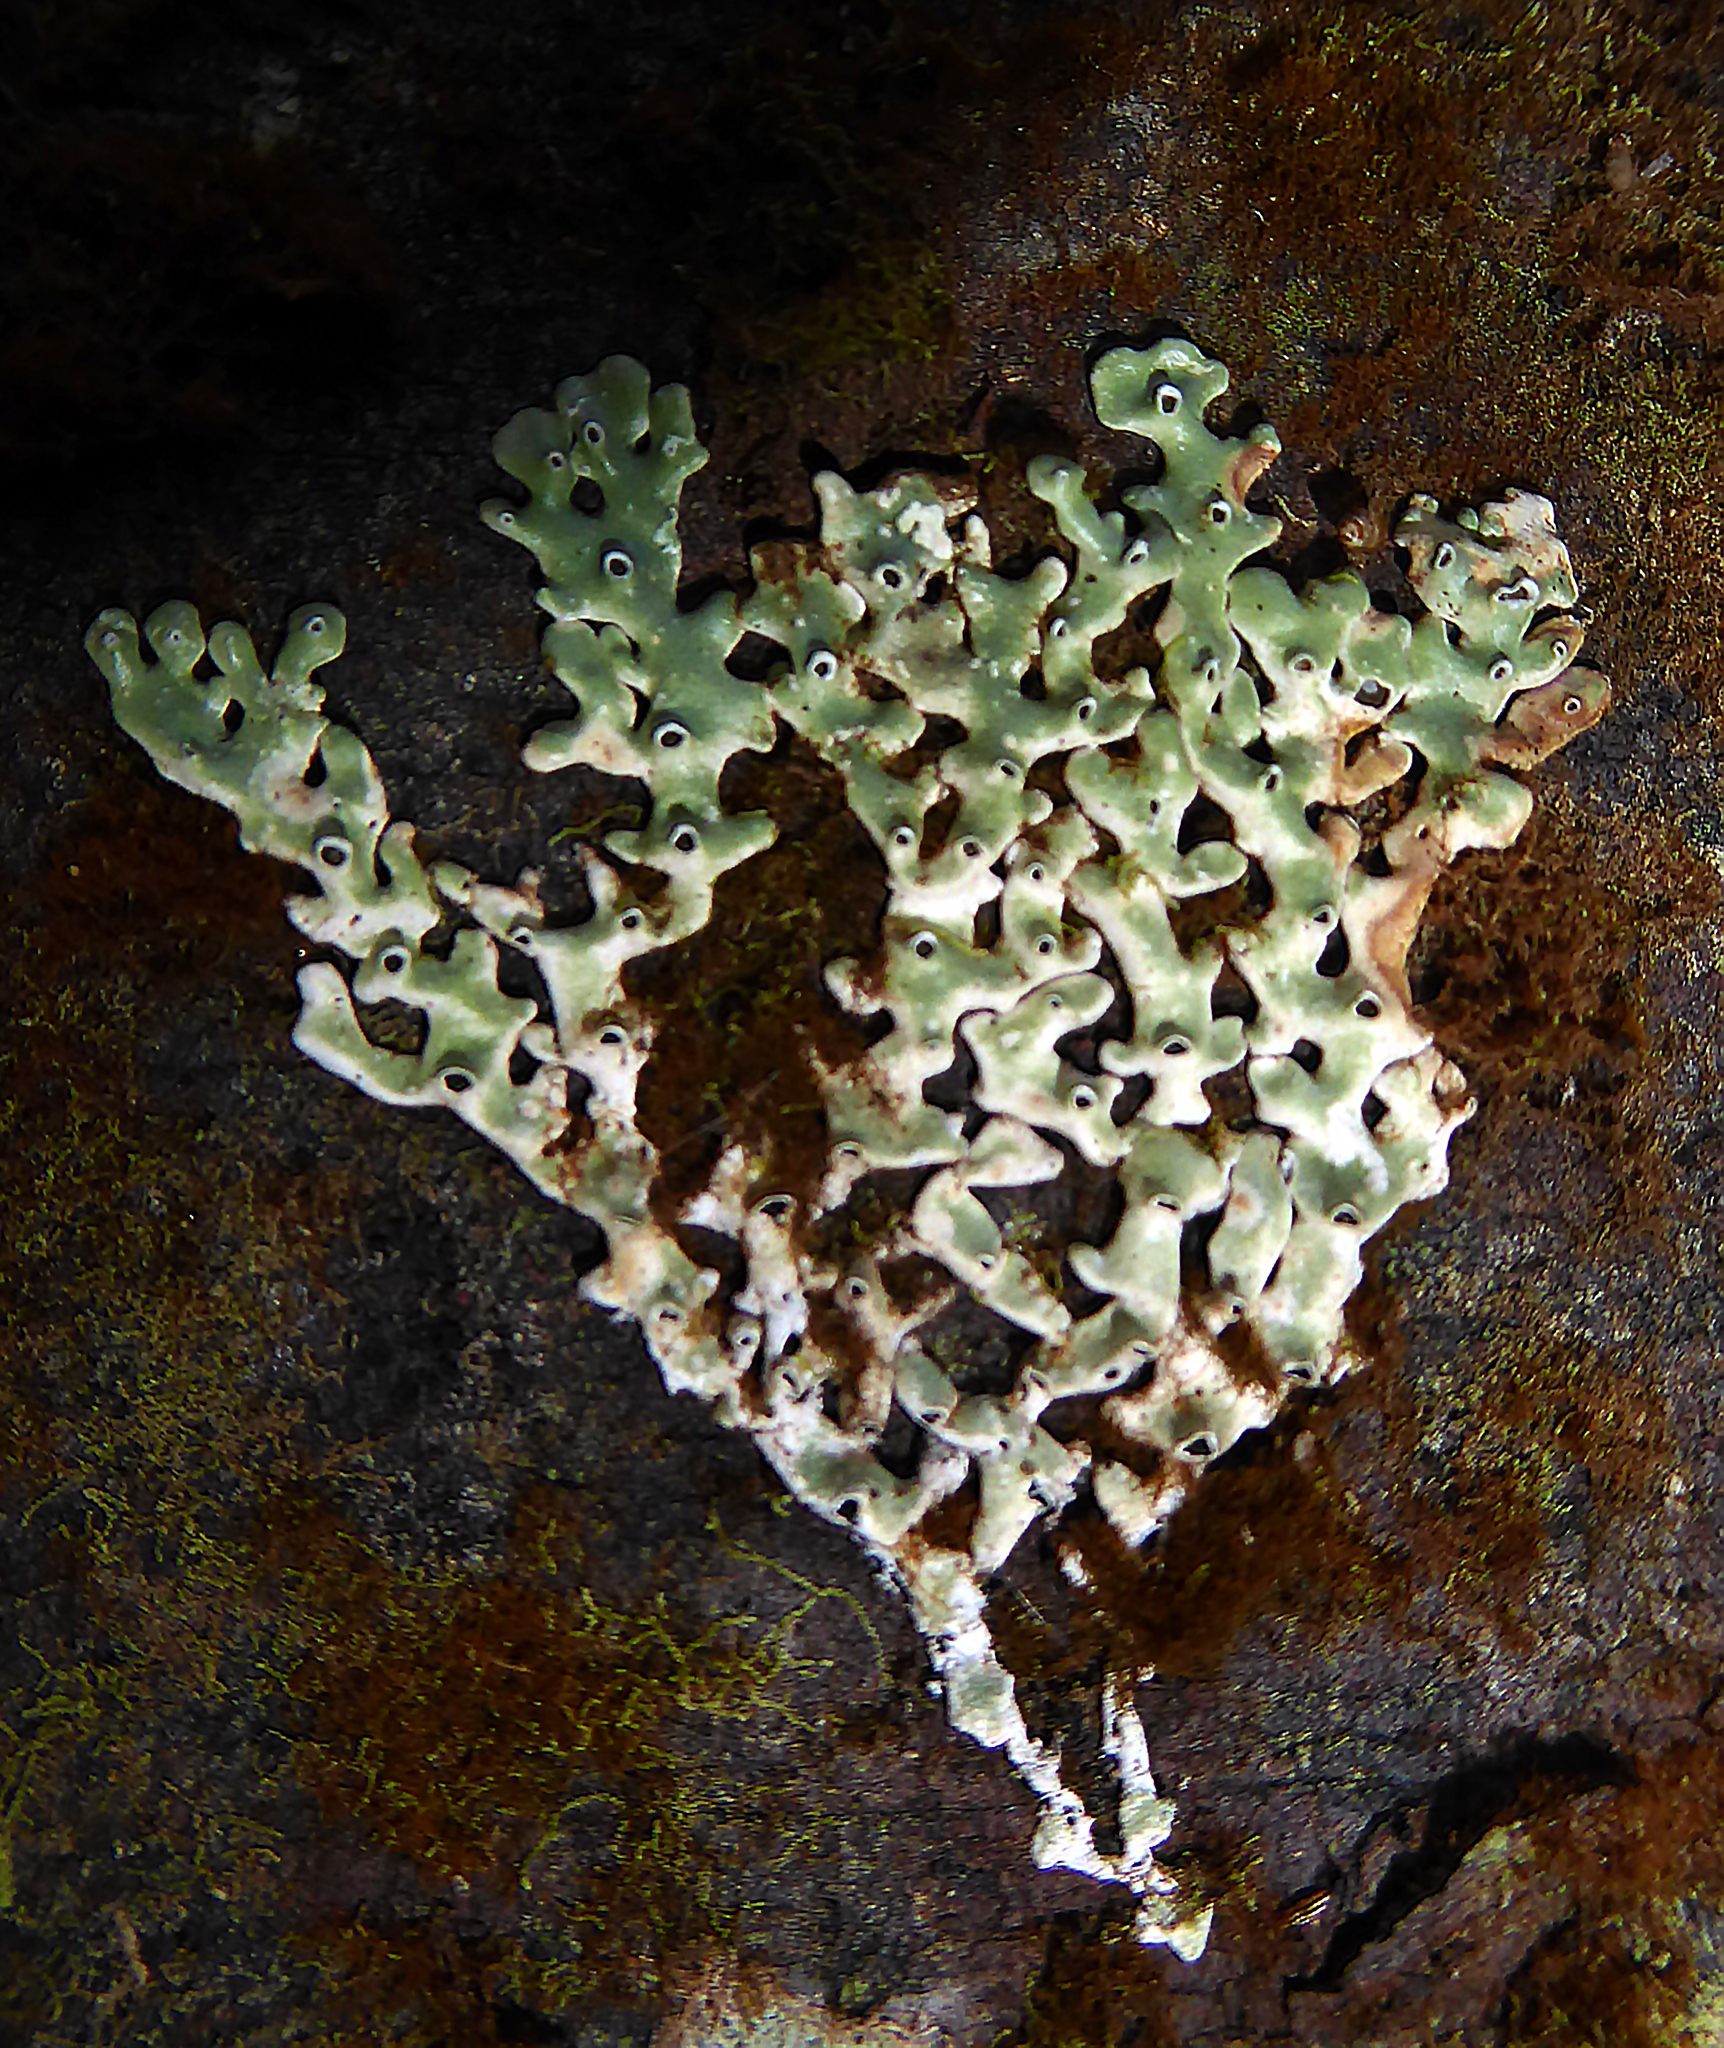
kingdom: Fungi
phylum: Ascomycota
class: Lecanoromycetes
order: Lecanorales
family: Parmeliaceae
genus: Menegazzia
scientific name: Menegazzia neozelandica
